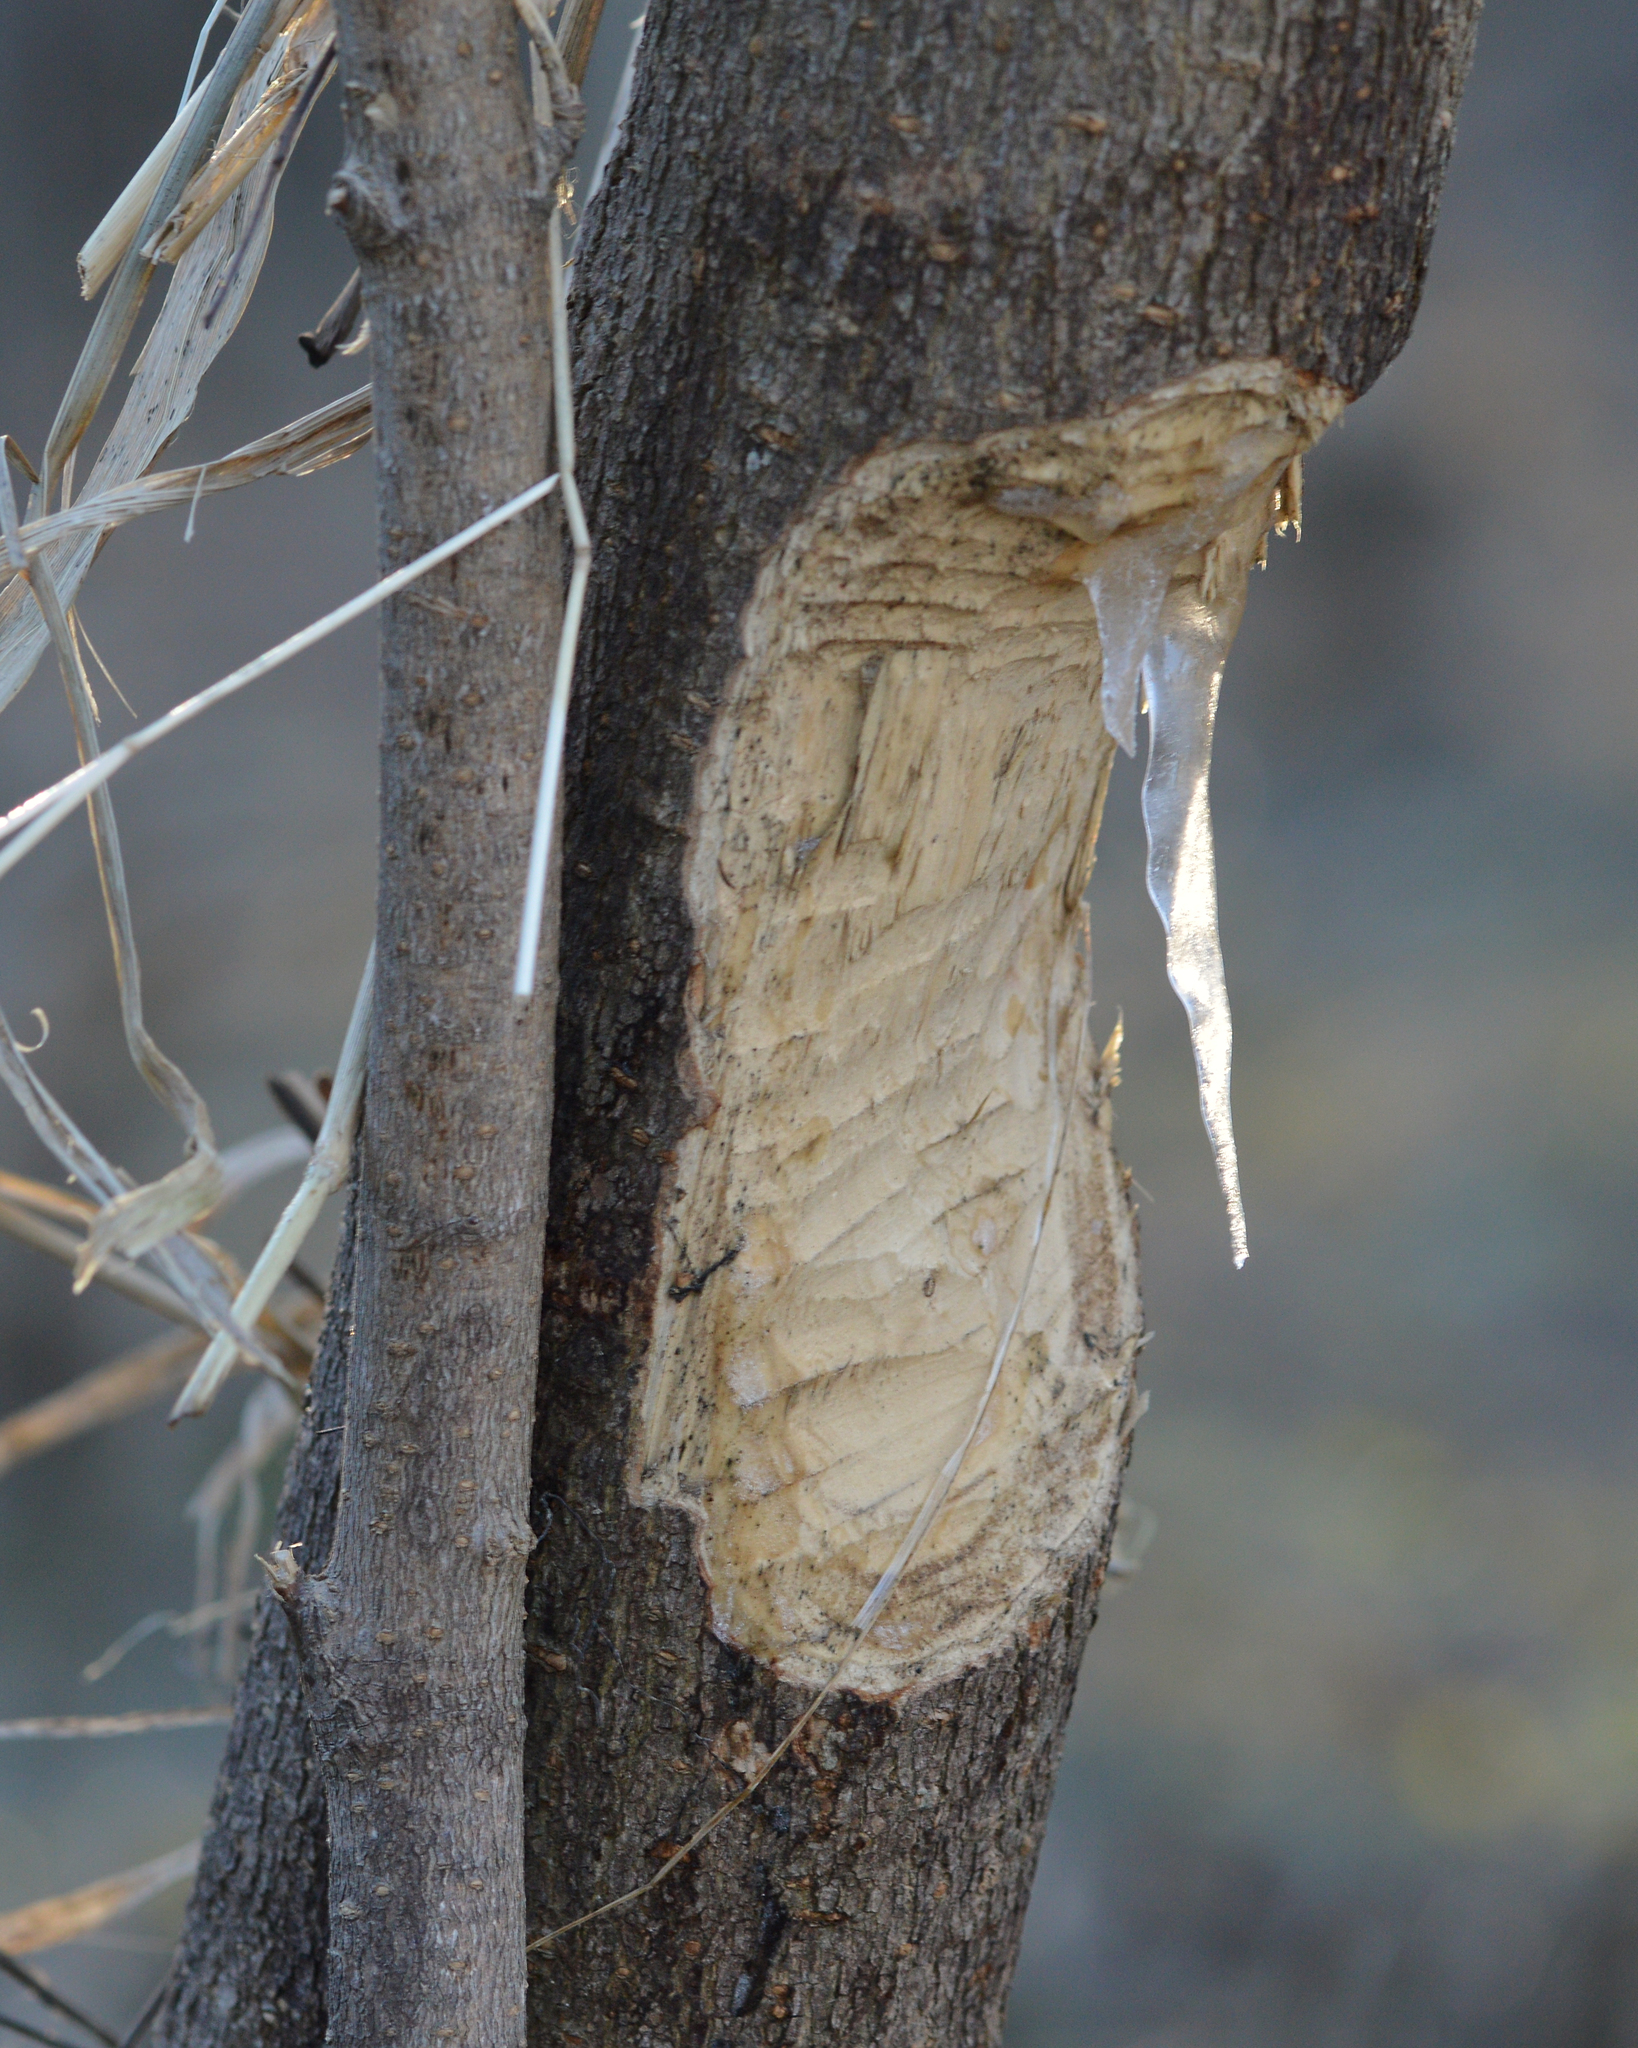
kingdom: Animalia
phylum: Chordata
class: Mammalia
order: Rodentia
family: Castoridae
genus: Castor
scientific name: Castor canadensis
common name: American beaver
